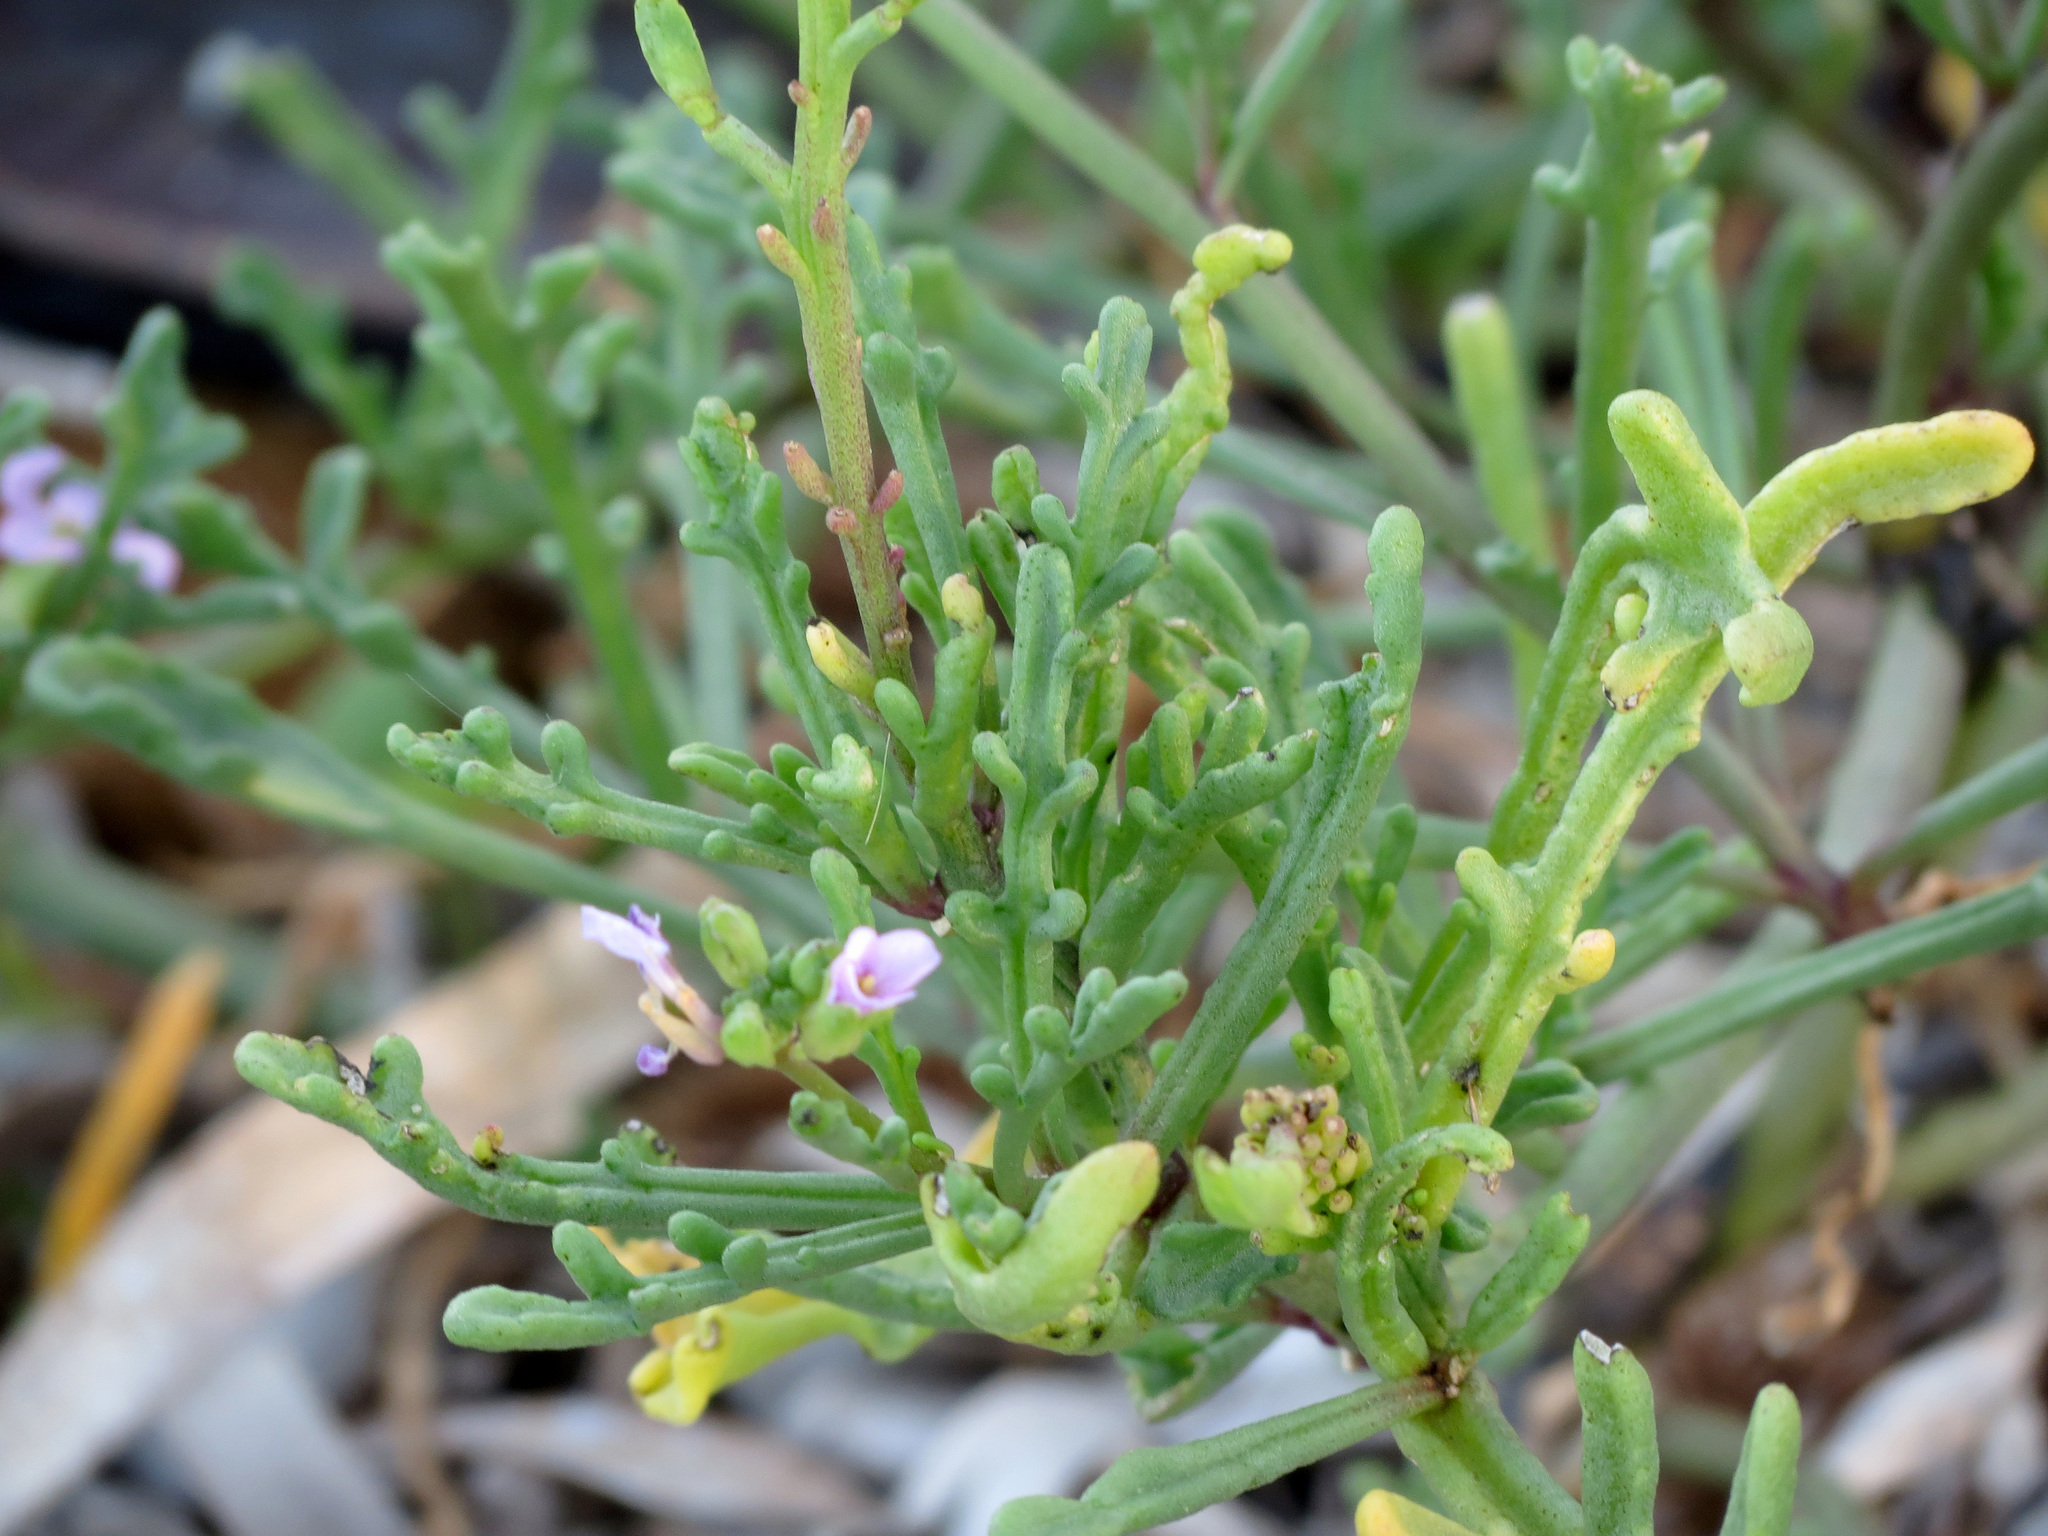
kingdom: Plantae
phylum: Tracheophyta
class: Magnoliopsida
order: Brassicales
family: Brassicaceae
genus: Cakile
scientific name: Cakile maritima
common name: Sea rocket
